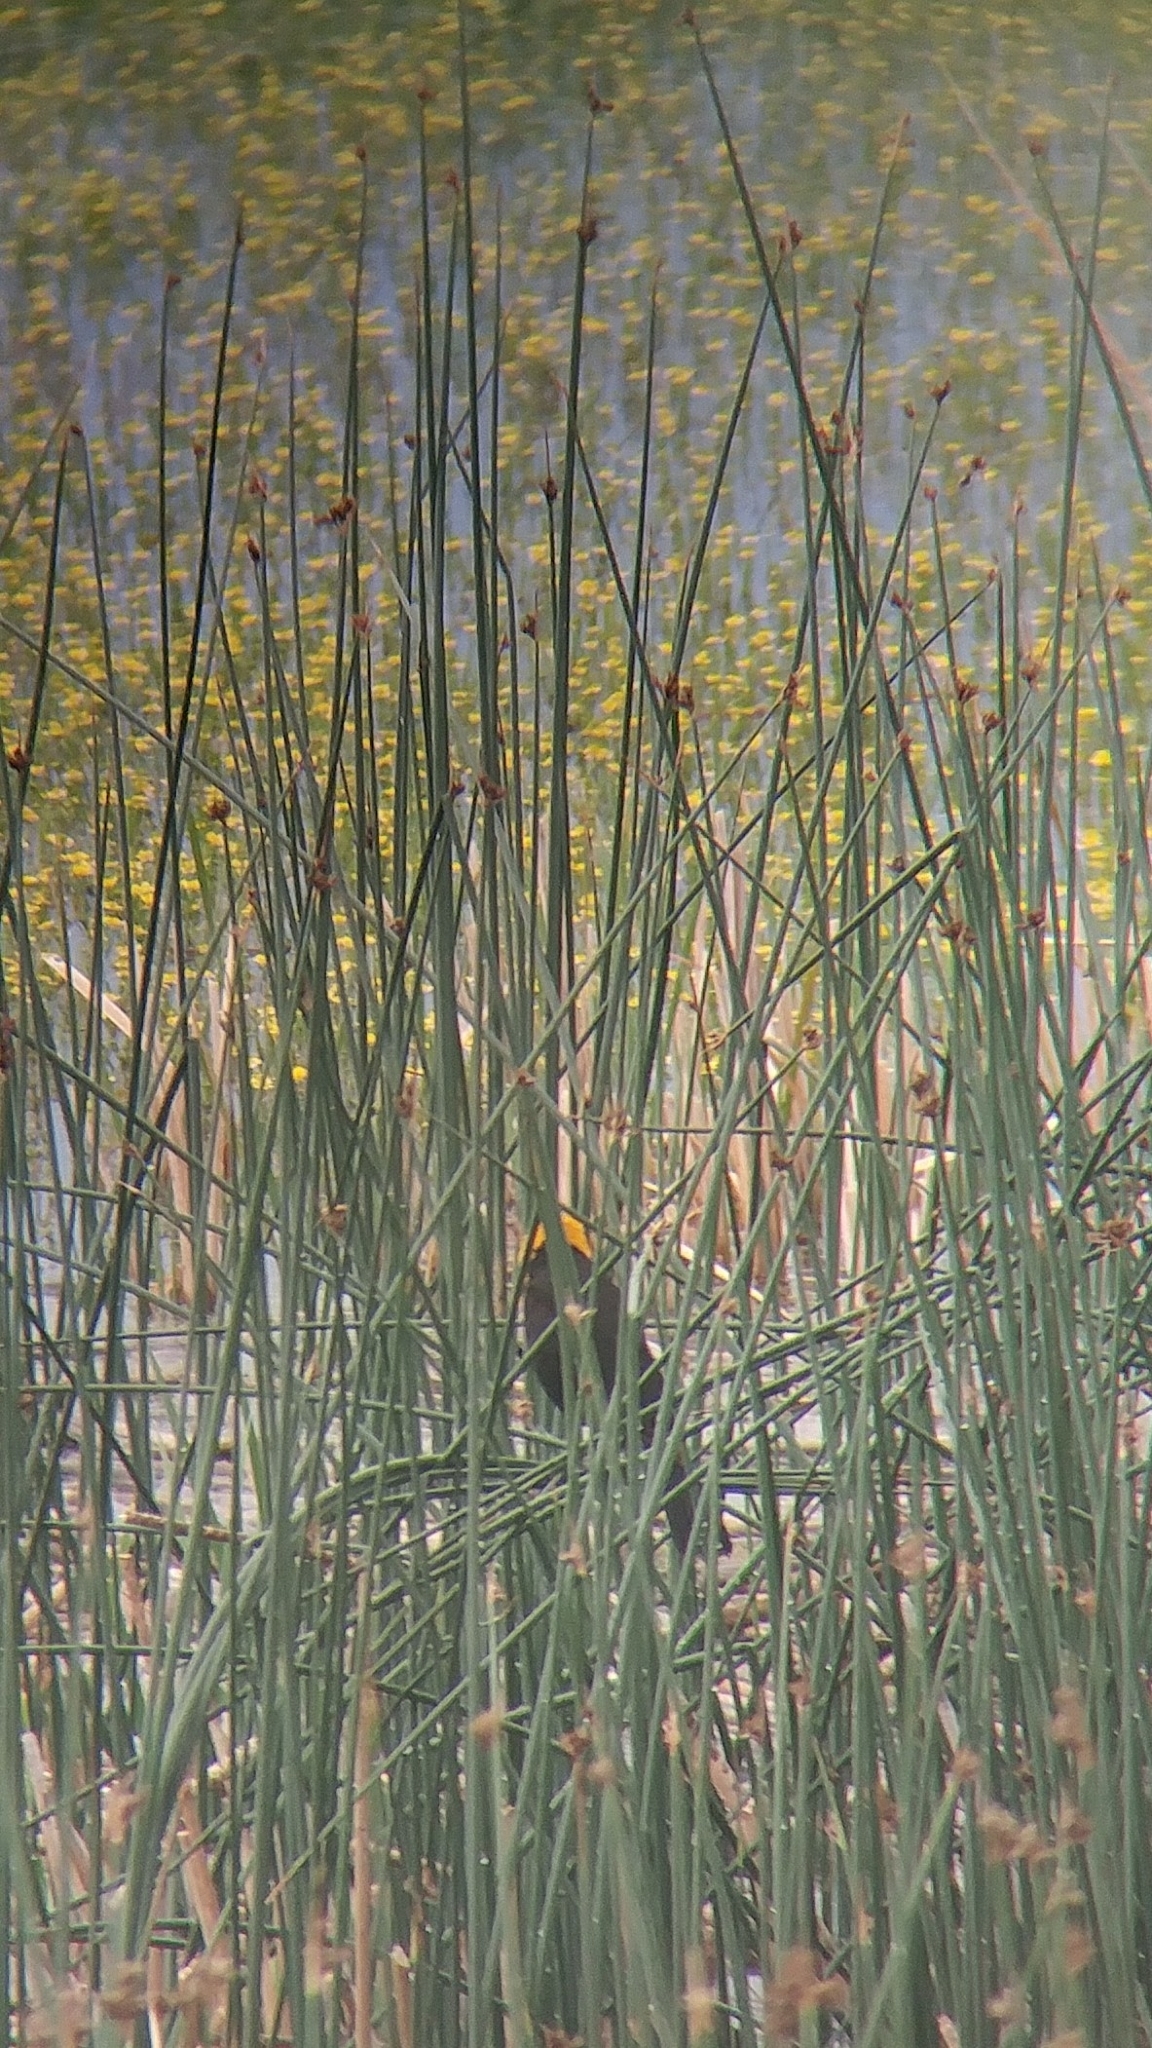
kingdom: Animalia
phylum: Chordata
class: Aves
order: Passeriformes
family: Icteridae
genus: Xanthocephalus
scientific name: Xanthocephalus xanthocephalus
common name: Yellow-headed blackbird
